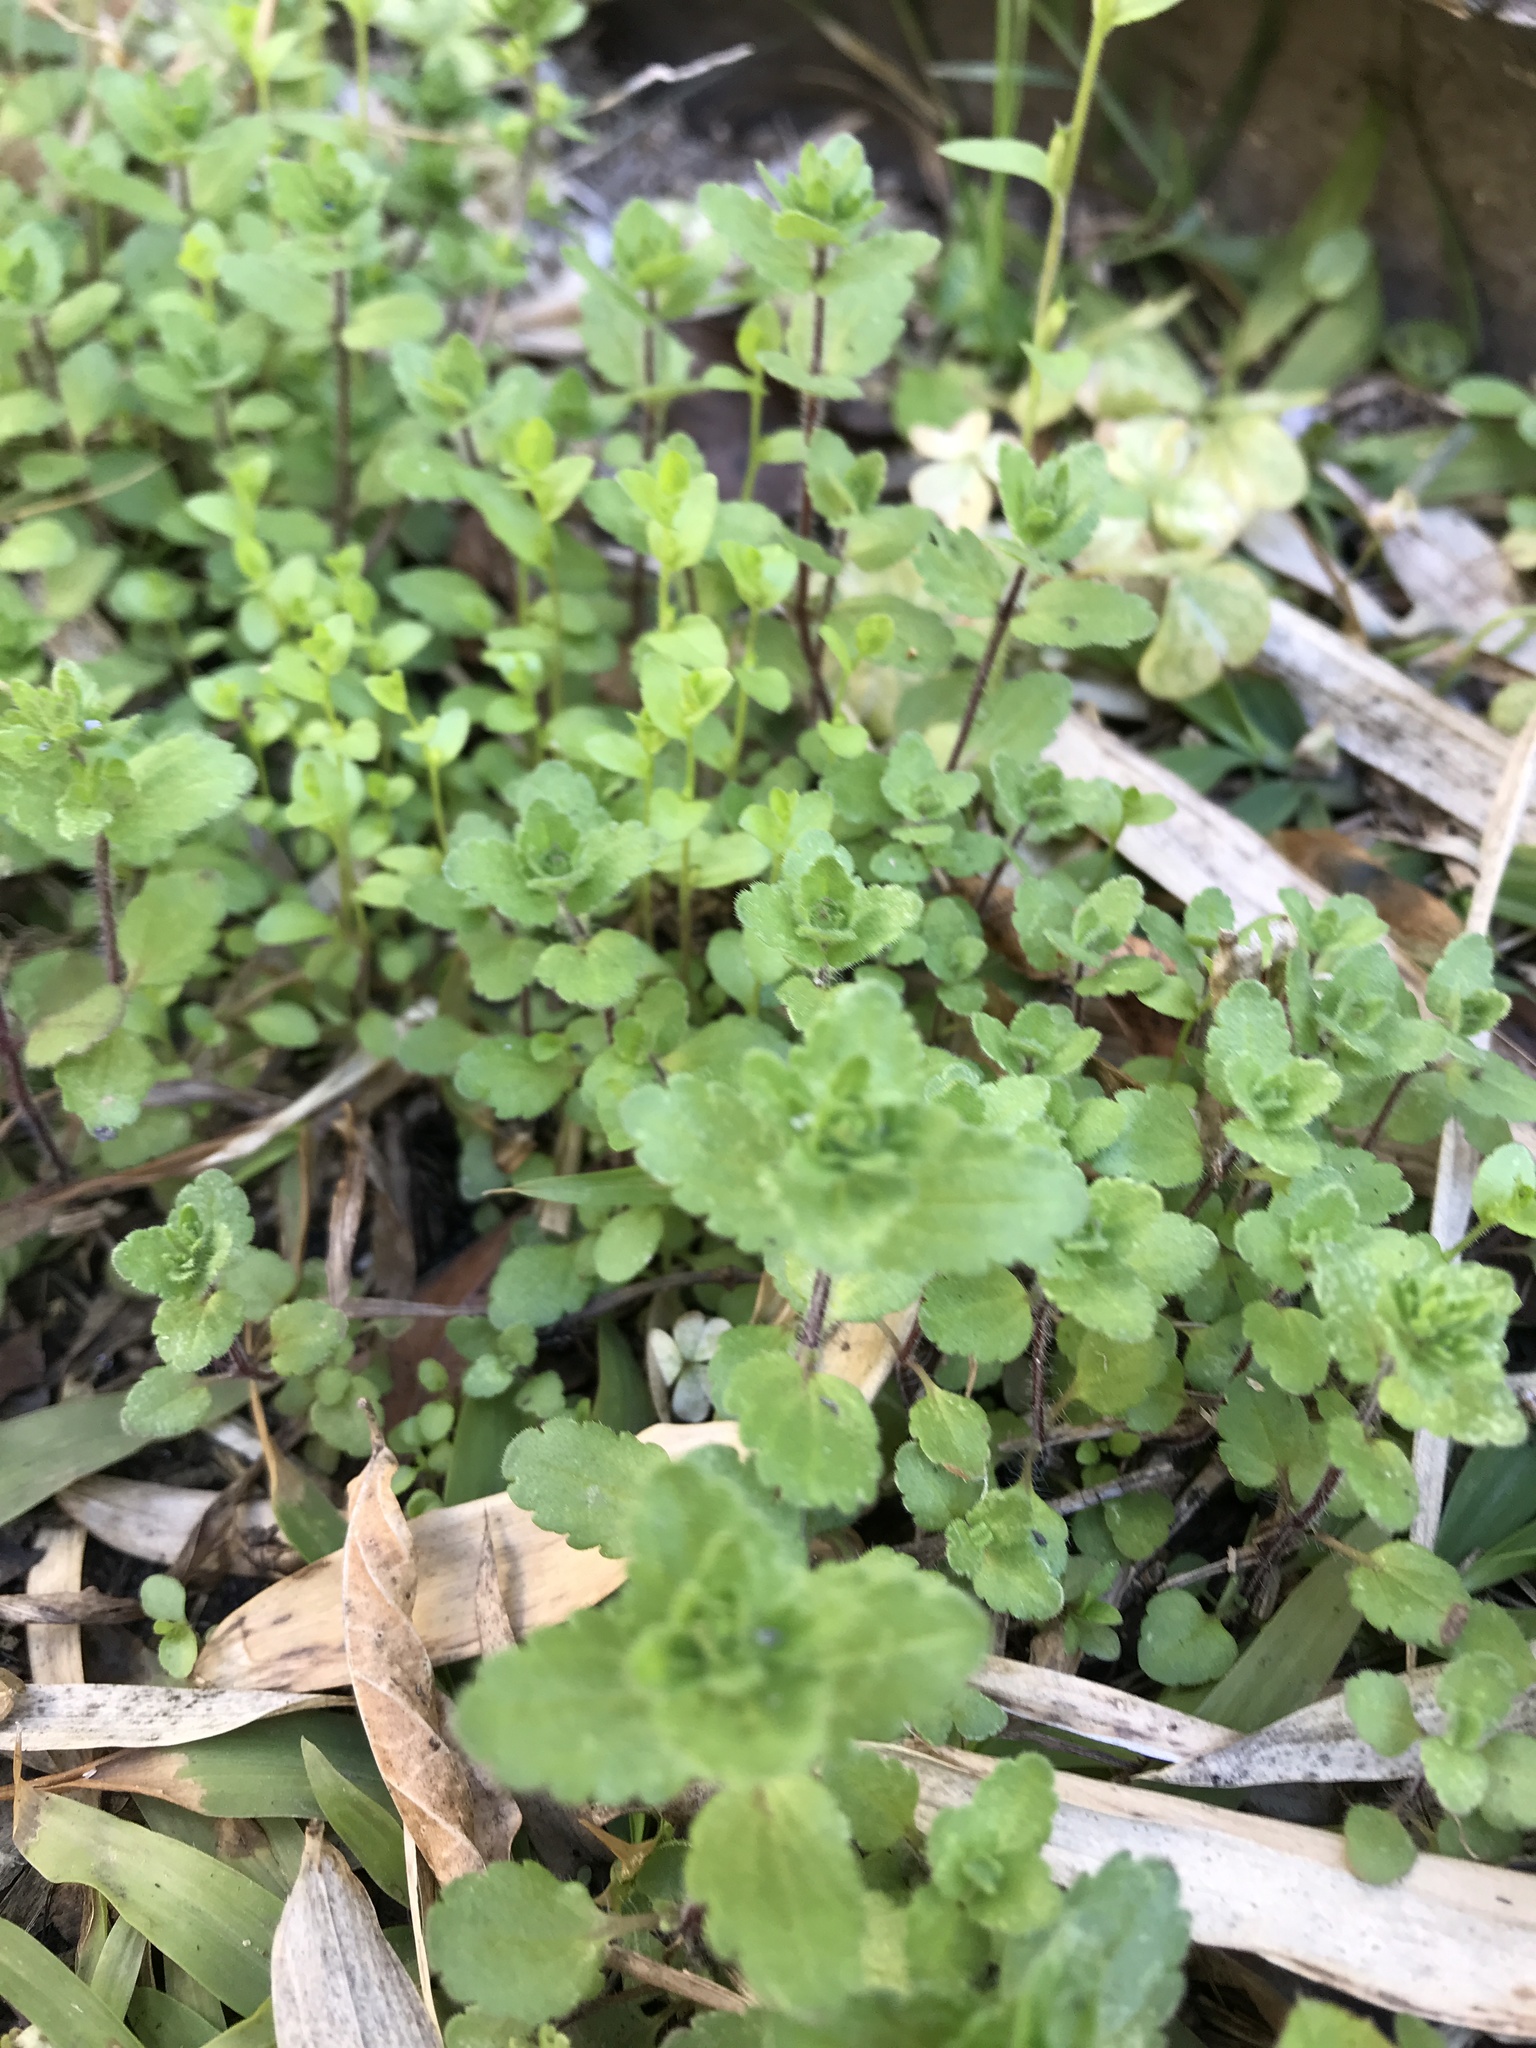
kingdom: Plantae
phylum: Tracheophyta
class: Magnoliopsida
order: Lamiales
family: Plantaginaceae
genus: Veronica
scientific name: Veronica persica
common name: Common field-speedwell
